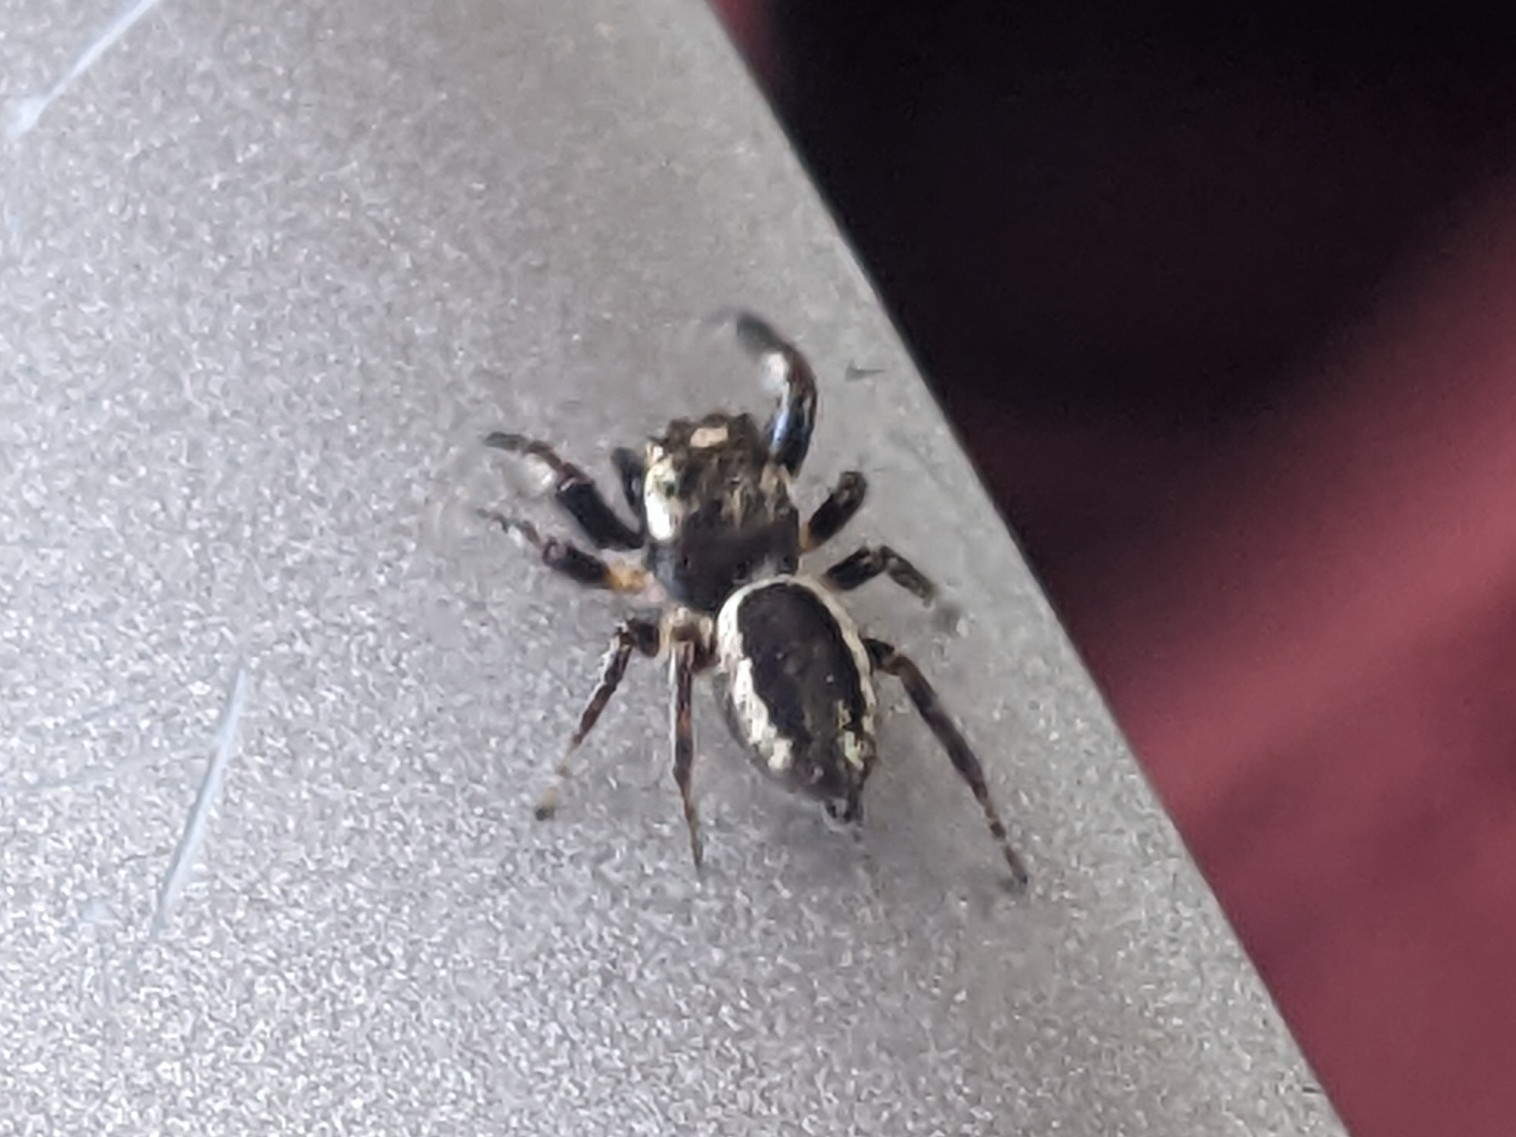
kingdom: Animalia
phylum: Arthropoda
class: Arachnida
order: Araneae
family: Salticidae
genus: Eris
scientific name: Eris militaris
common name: Bronze jumper
